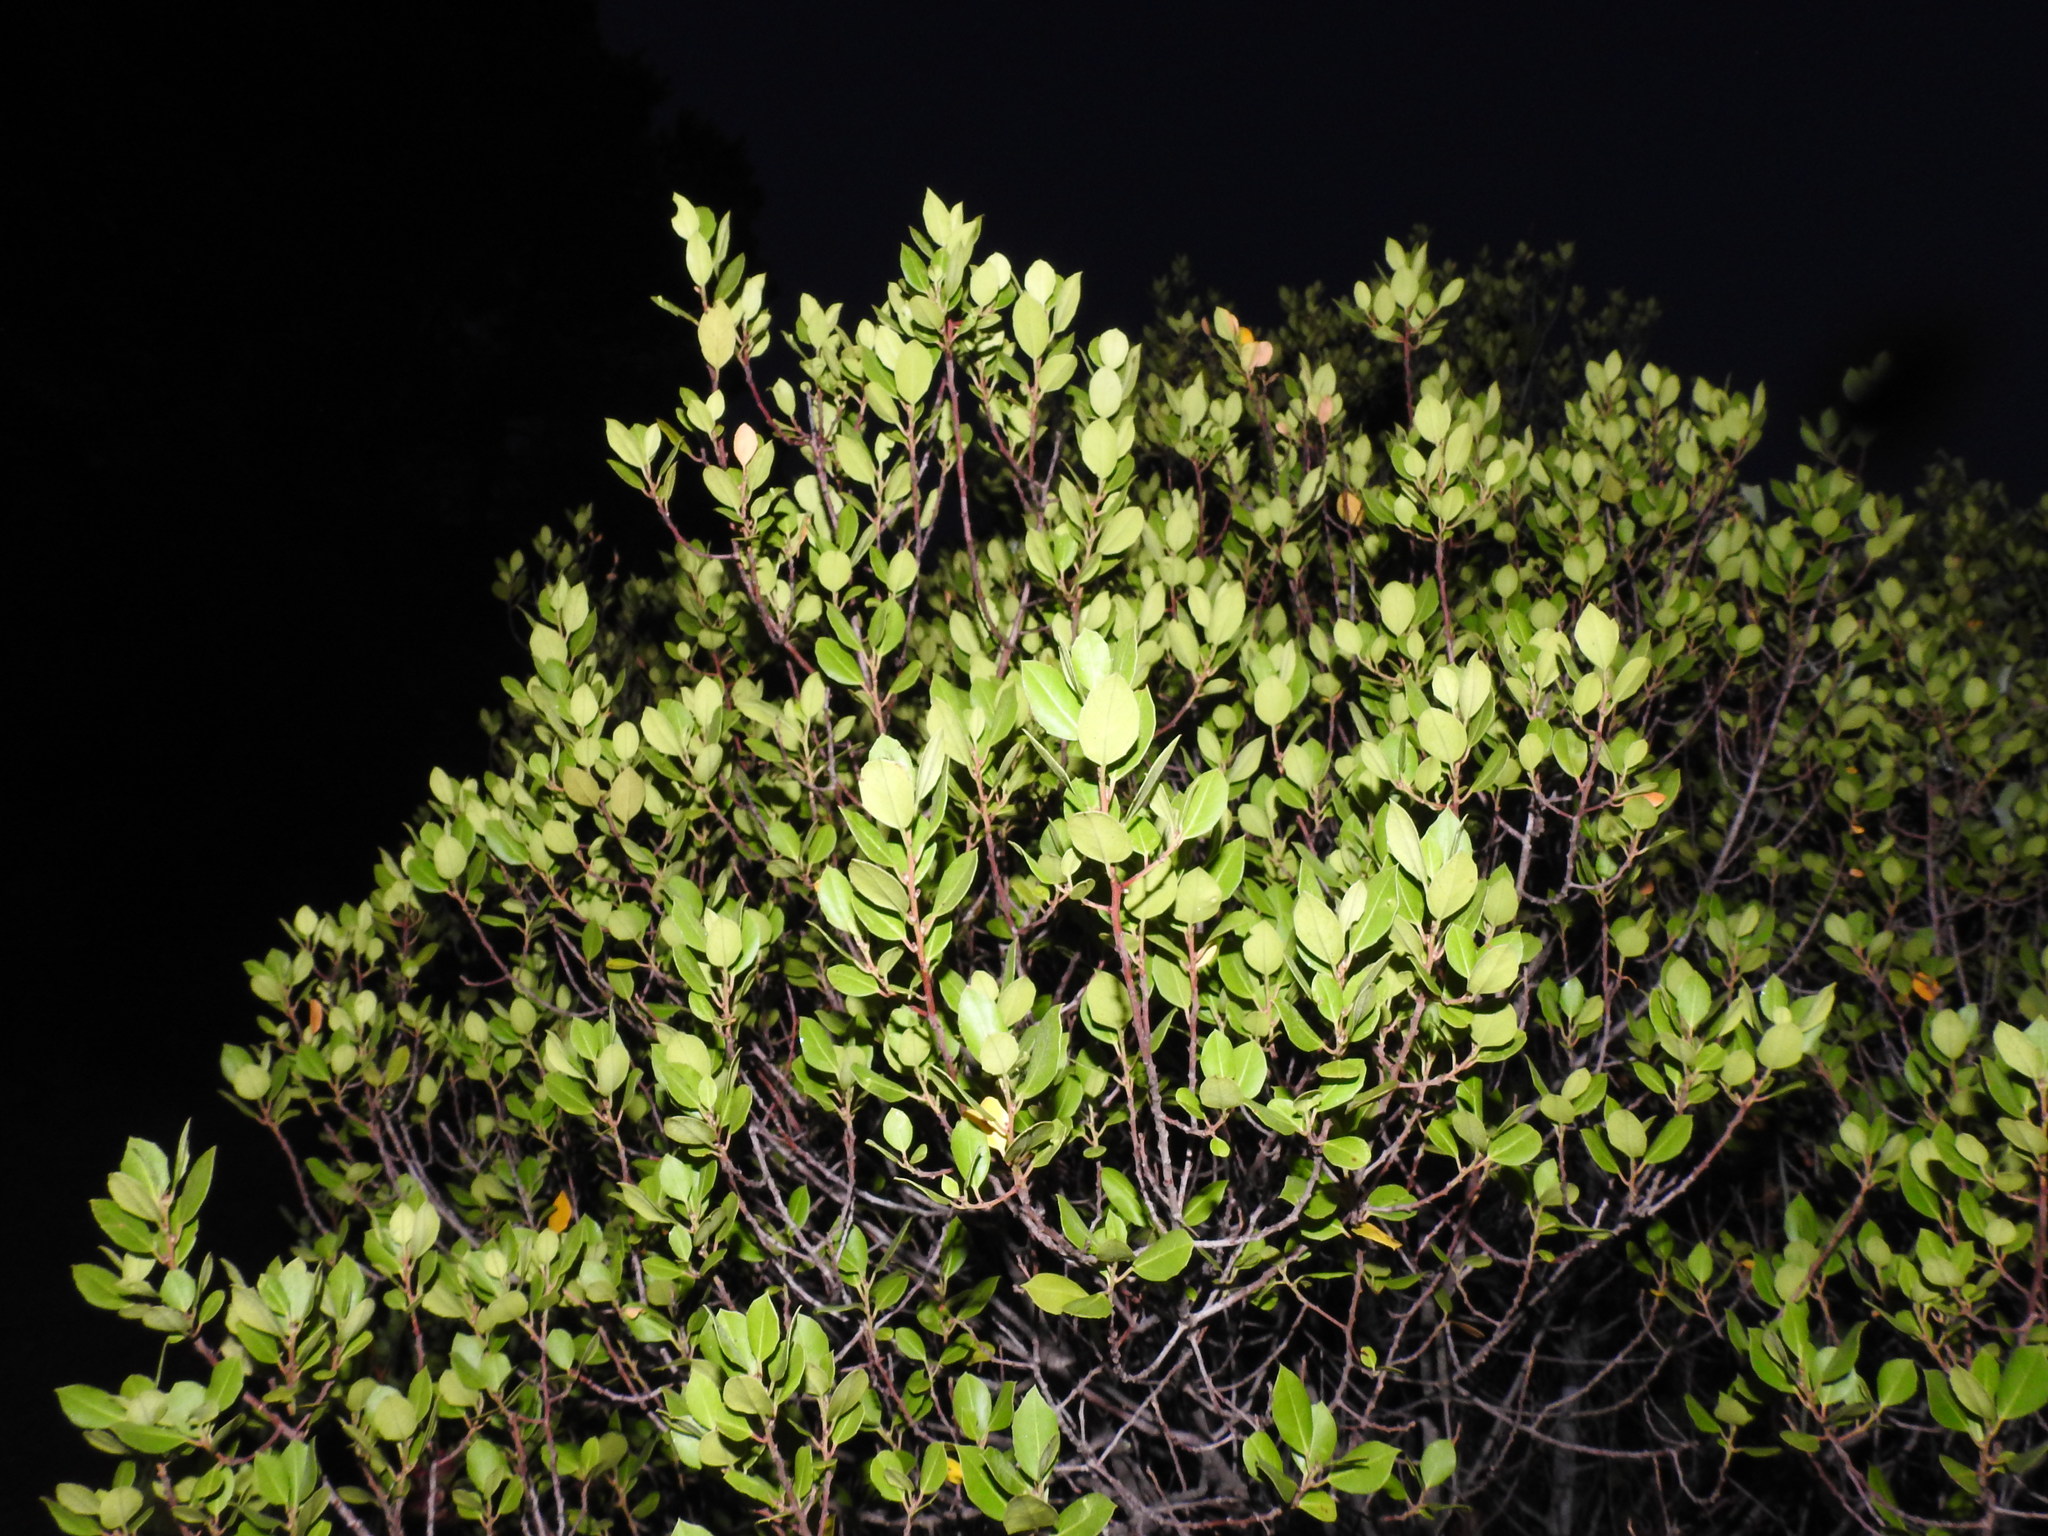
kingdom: Plantae
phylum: Tracheophyta
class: Magnoliopsida
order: Rosales
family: Rhamnaceae
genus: Rhamnus
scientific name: Rhamnus alaternus
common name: Mediterranean buckthorn
